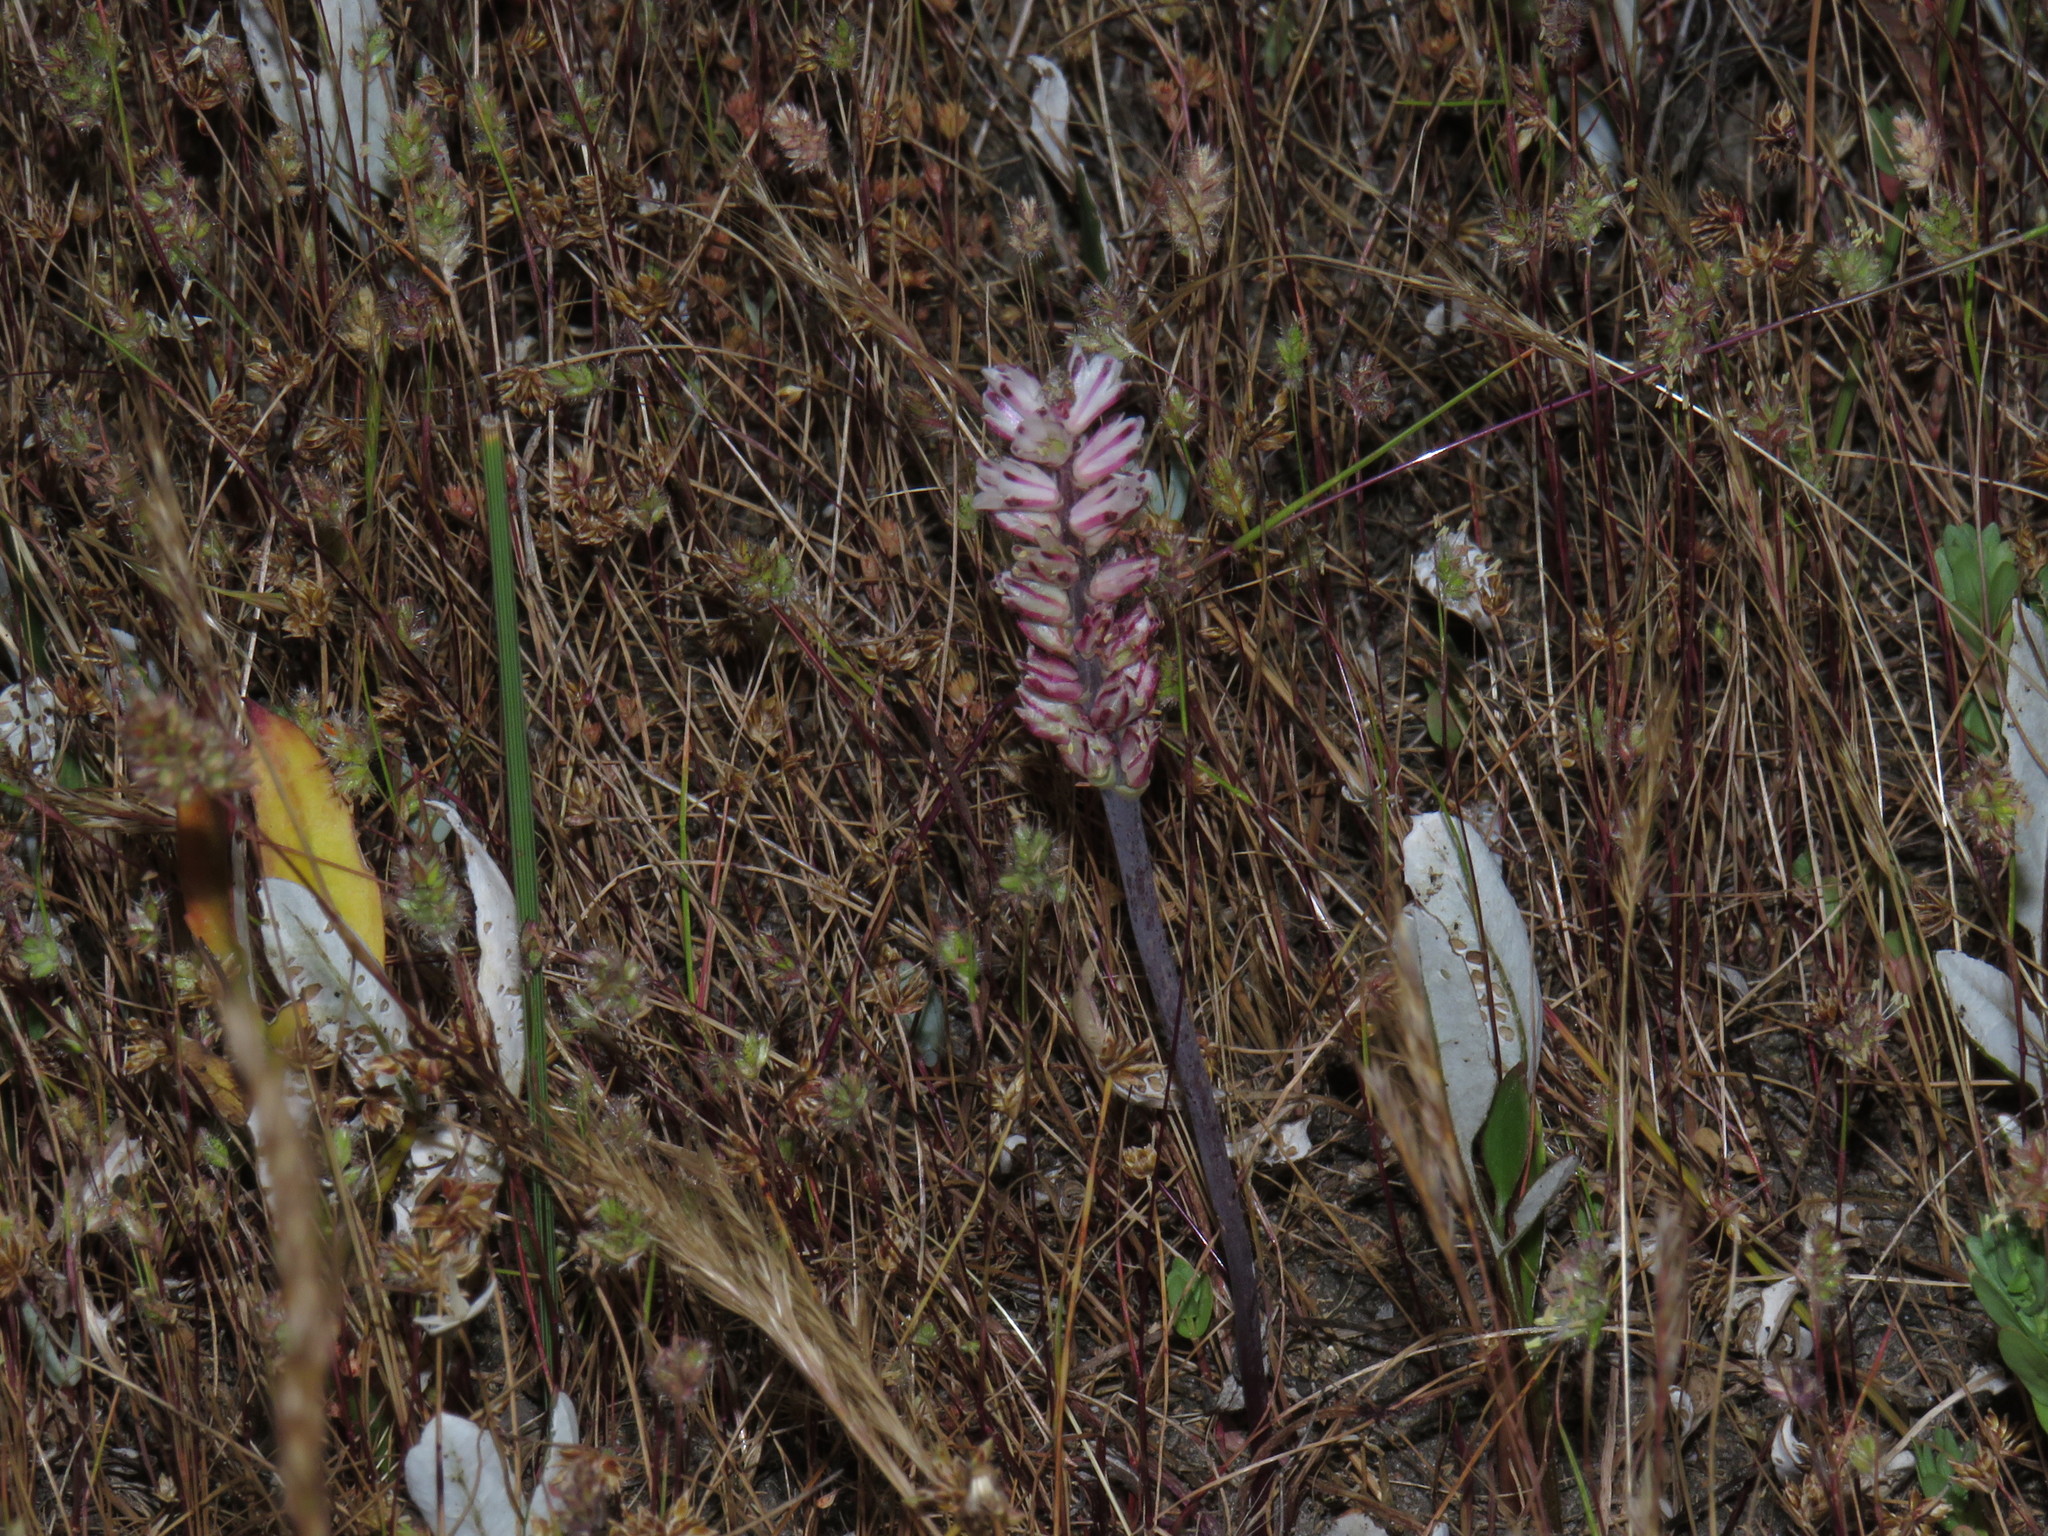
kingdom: Plantae
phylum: Tracheophyta
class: Liliopsida
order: Asparagales
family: Asparagaceae
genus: Lachenalia
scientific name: Lachenalia contaminata
